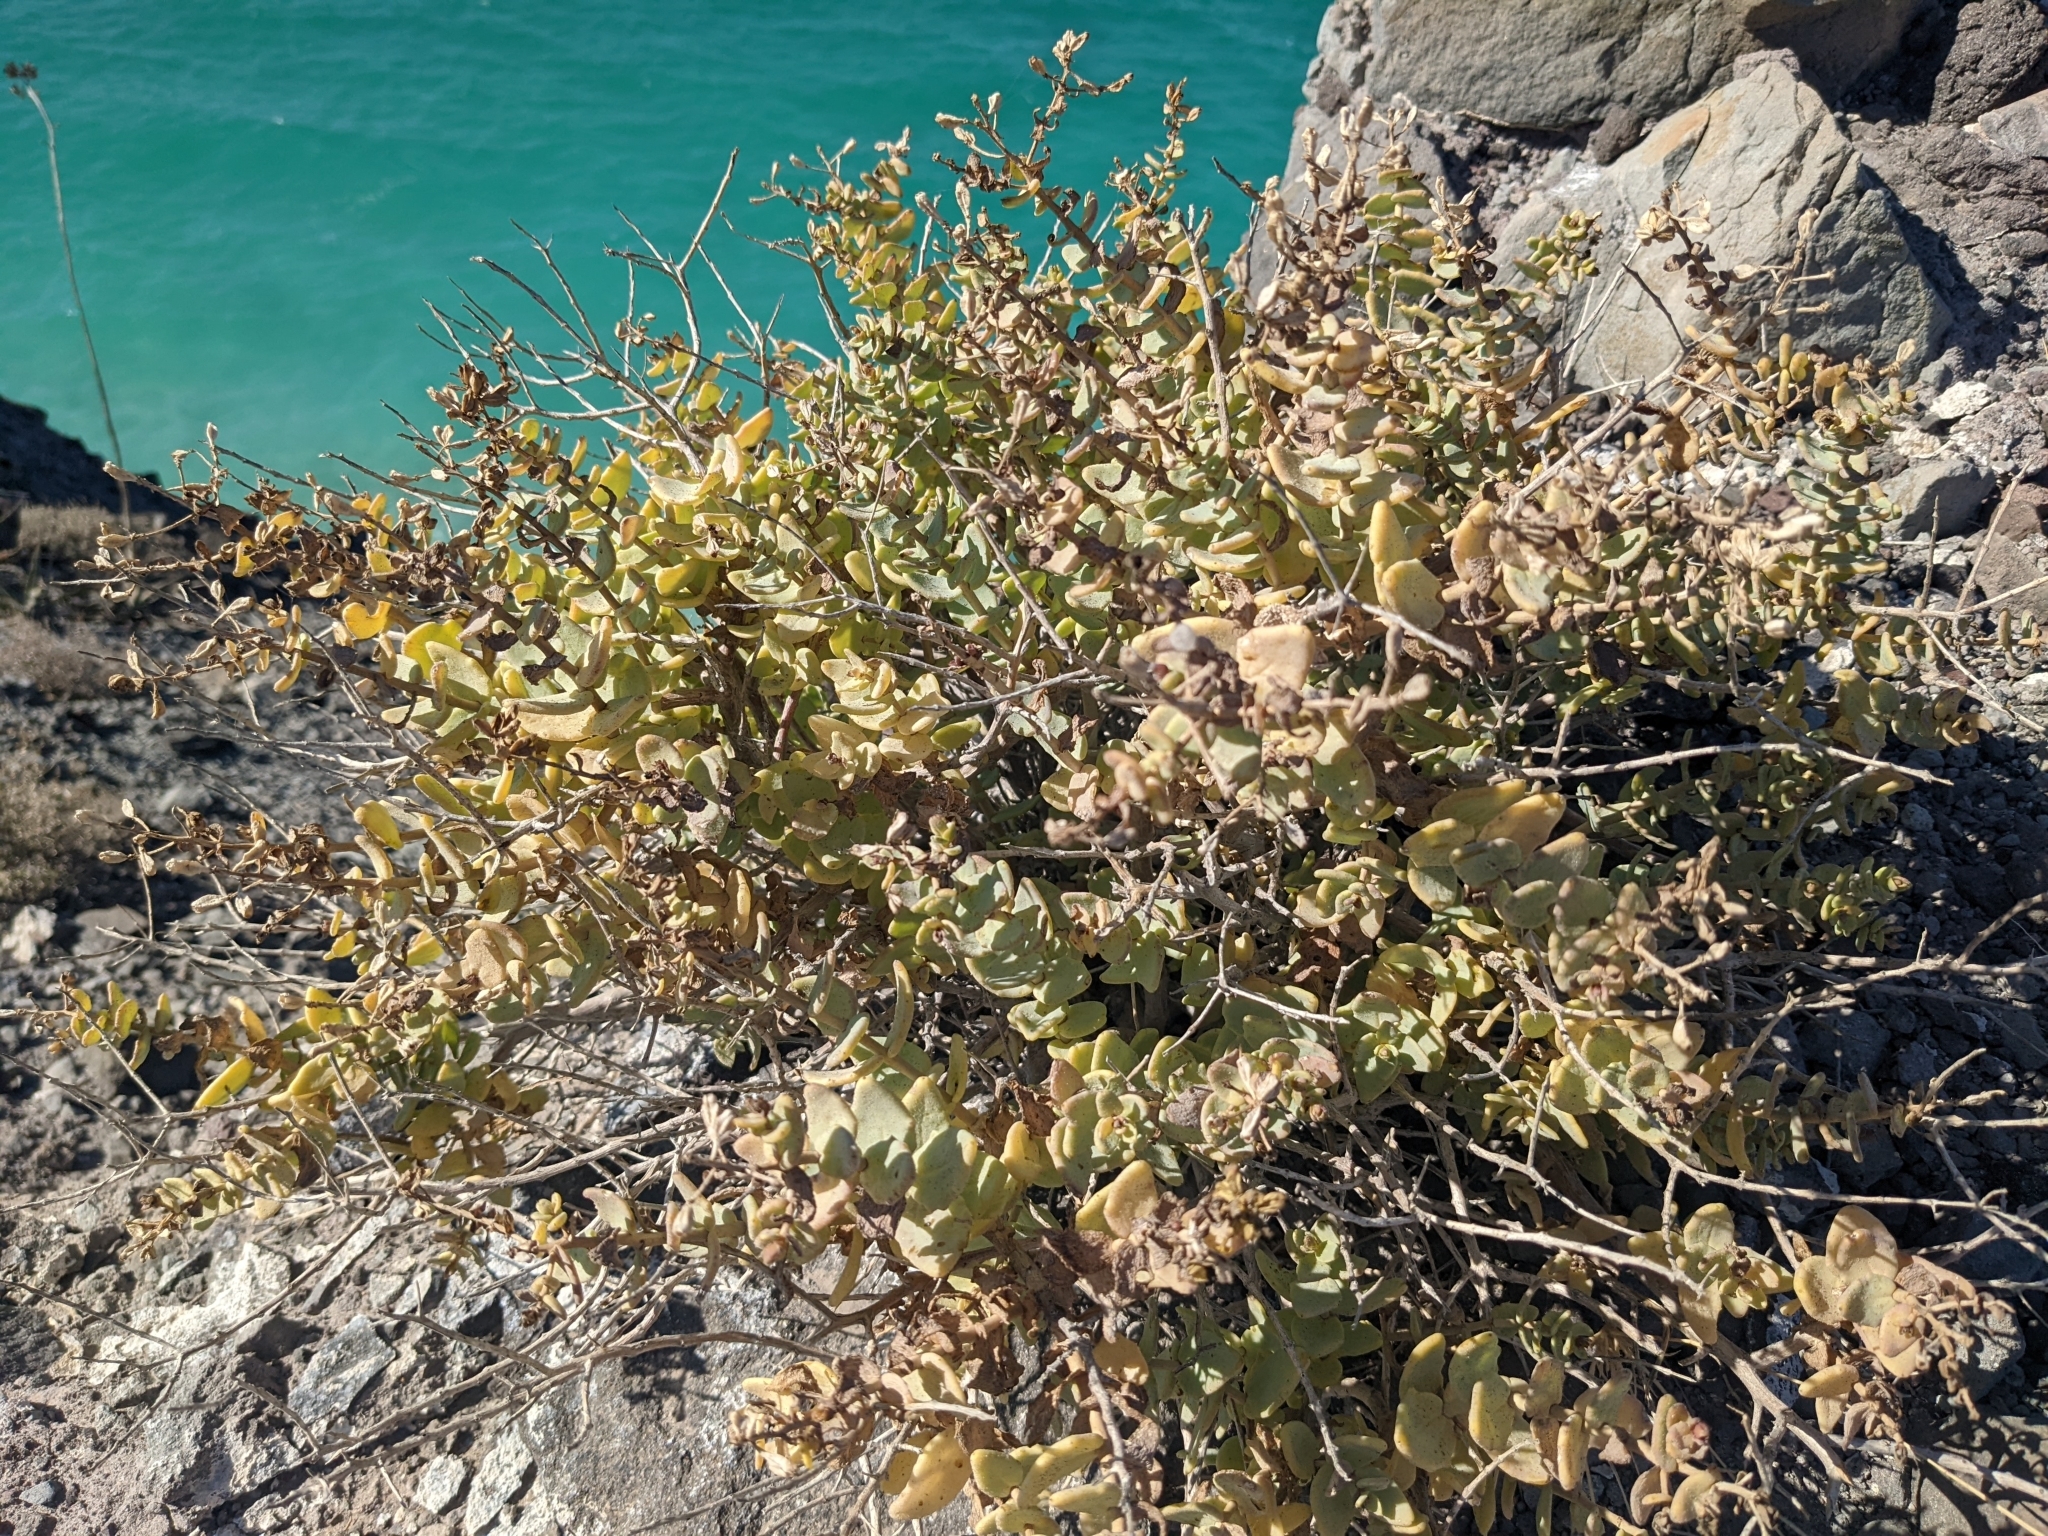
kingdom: Plantae
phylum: Tracheophyta
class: Magnoliopsida
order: Asterales
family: Asteraceae
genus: Coulterella
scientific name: Coulterella capitata
